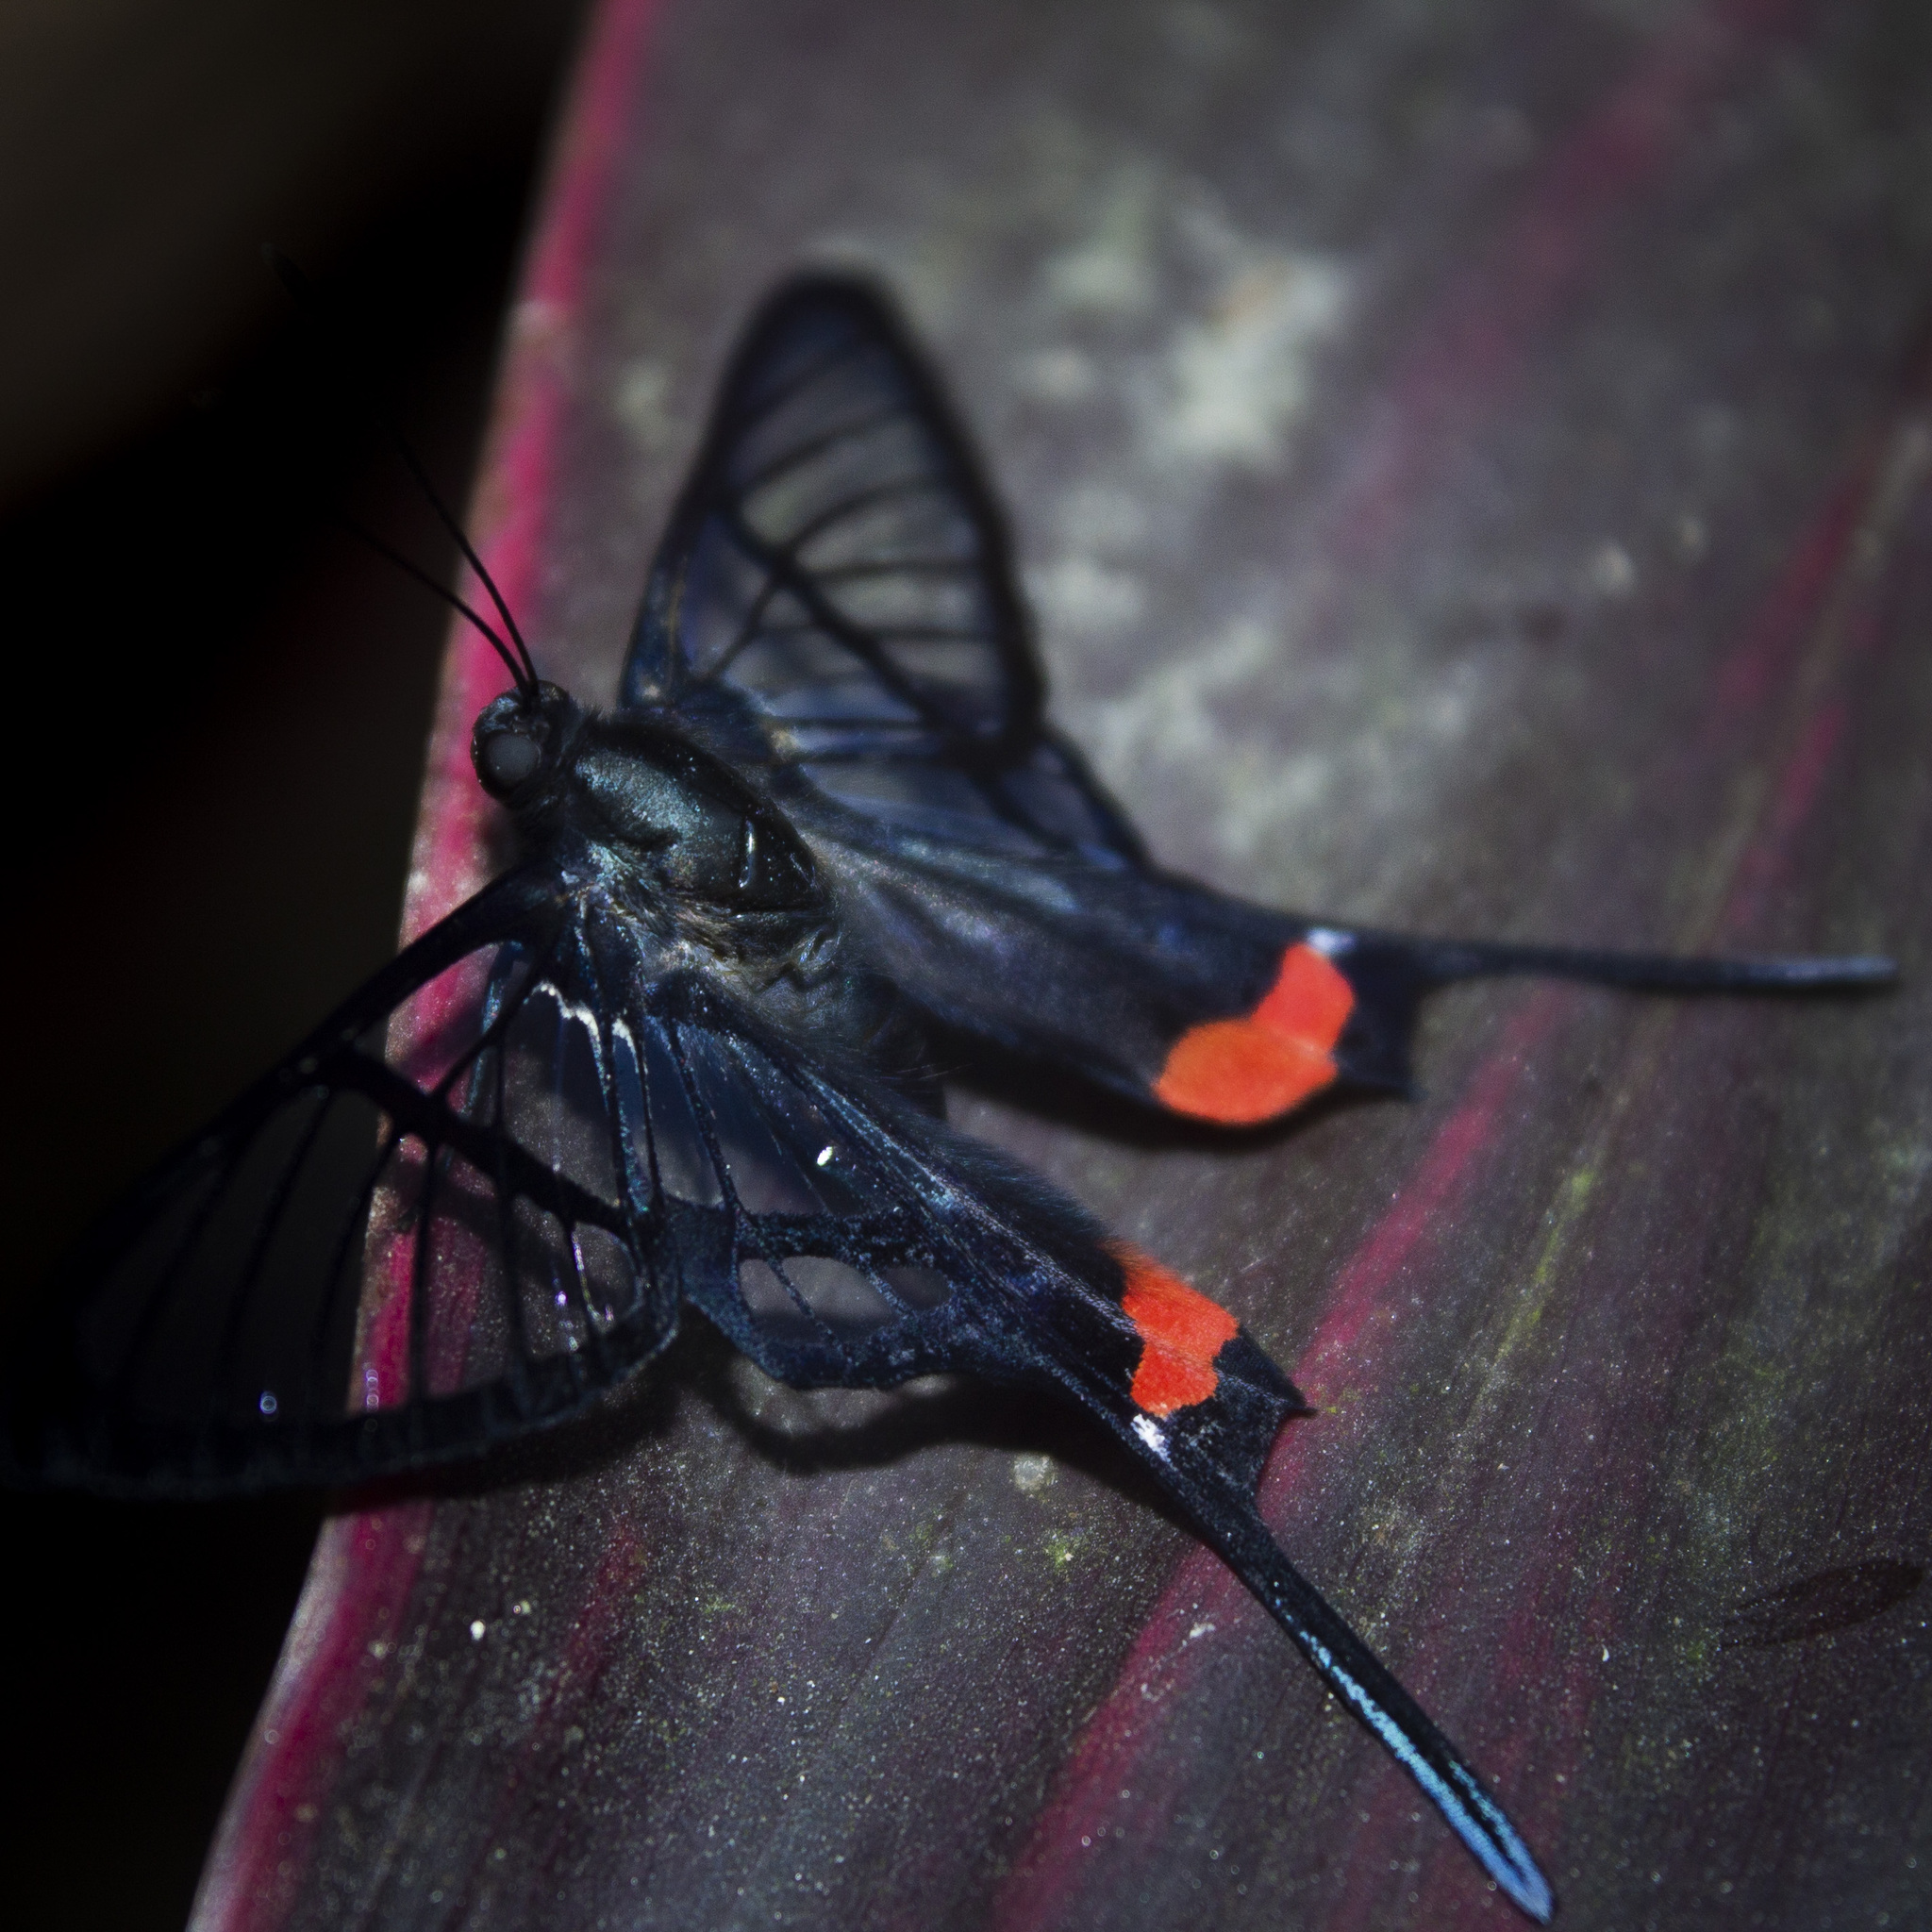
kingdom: Animalia
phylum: Arthropoda
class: Insecta
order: Lepidoptera
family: Riodinidae
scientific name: Riodinidae
